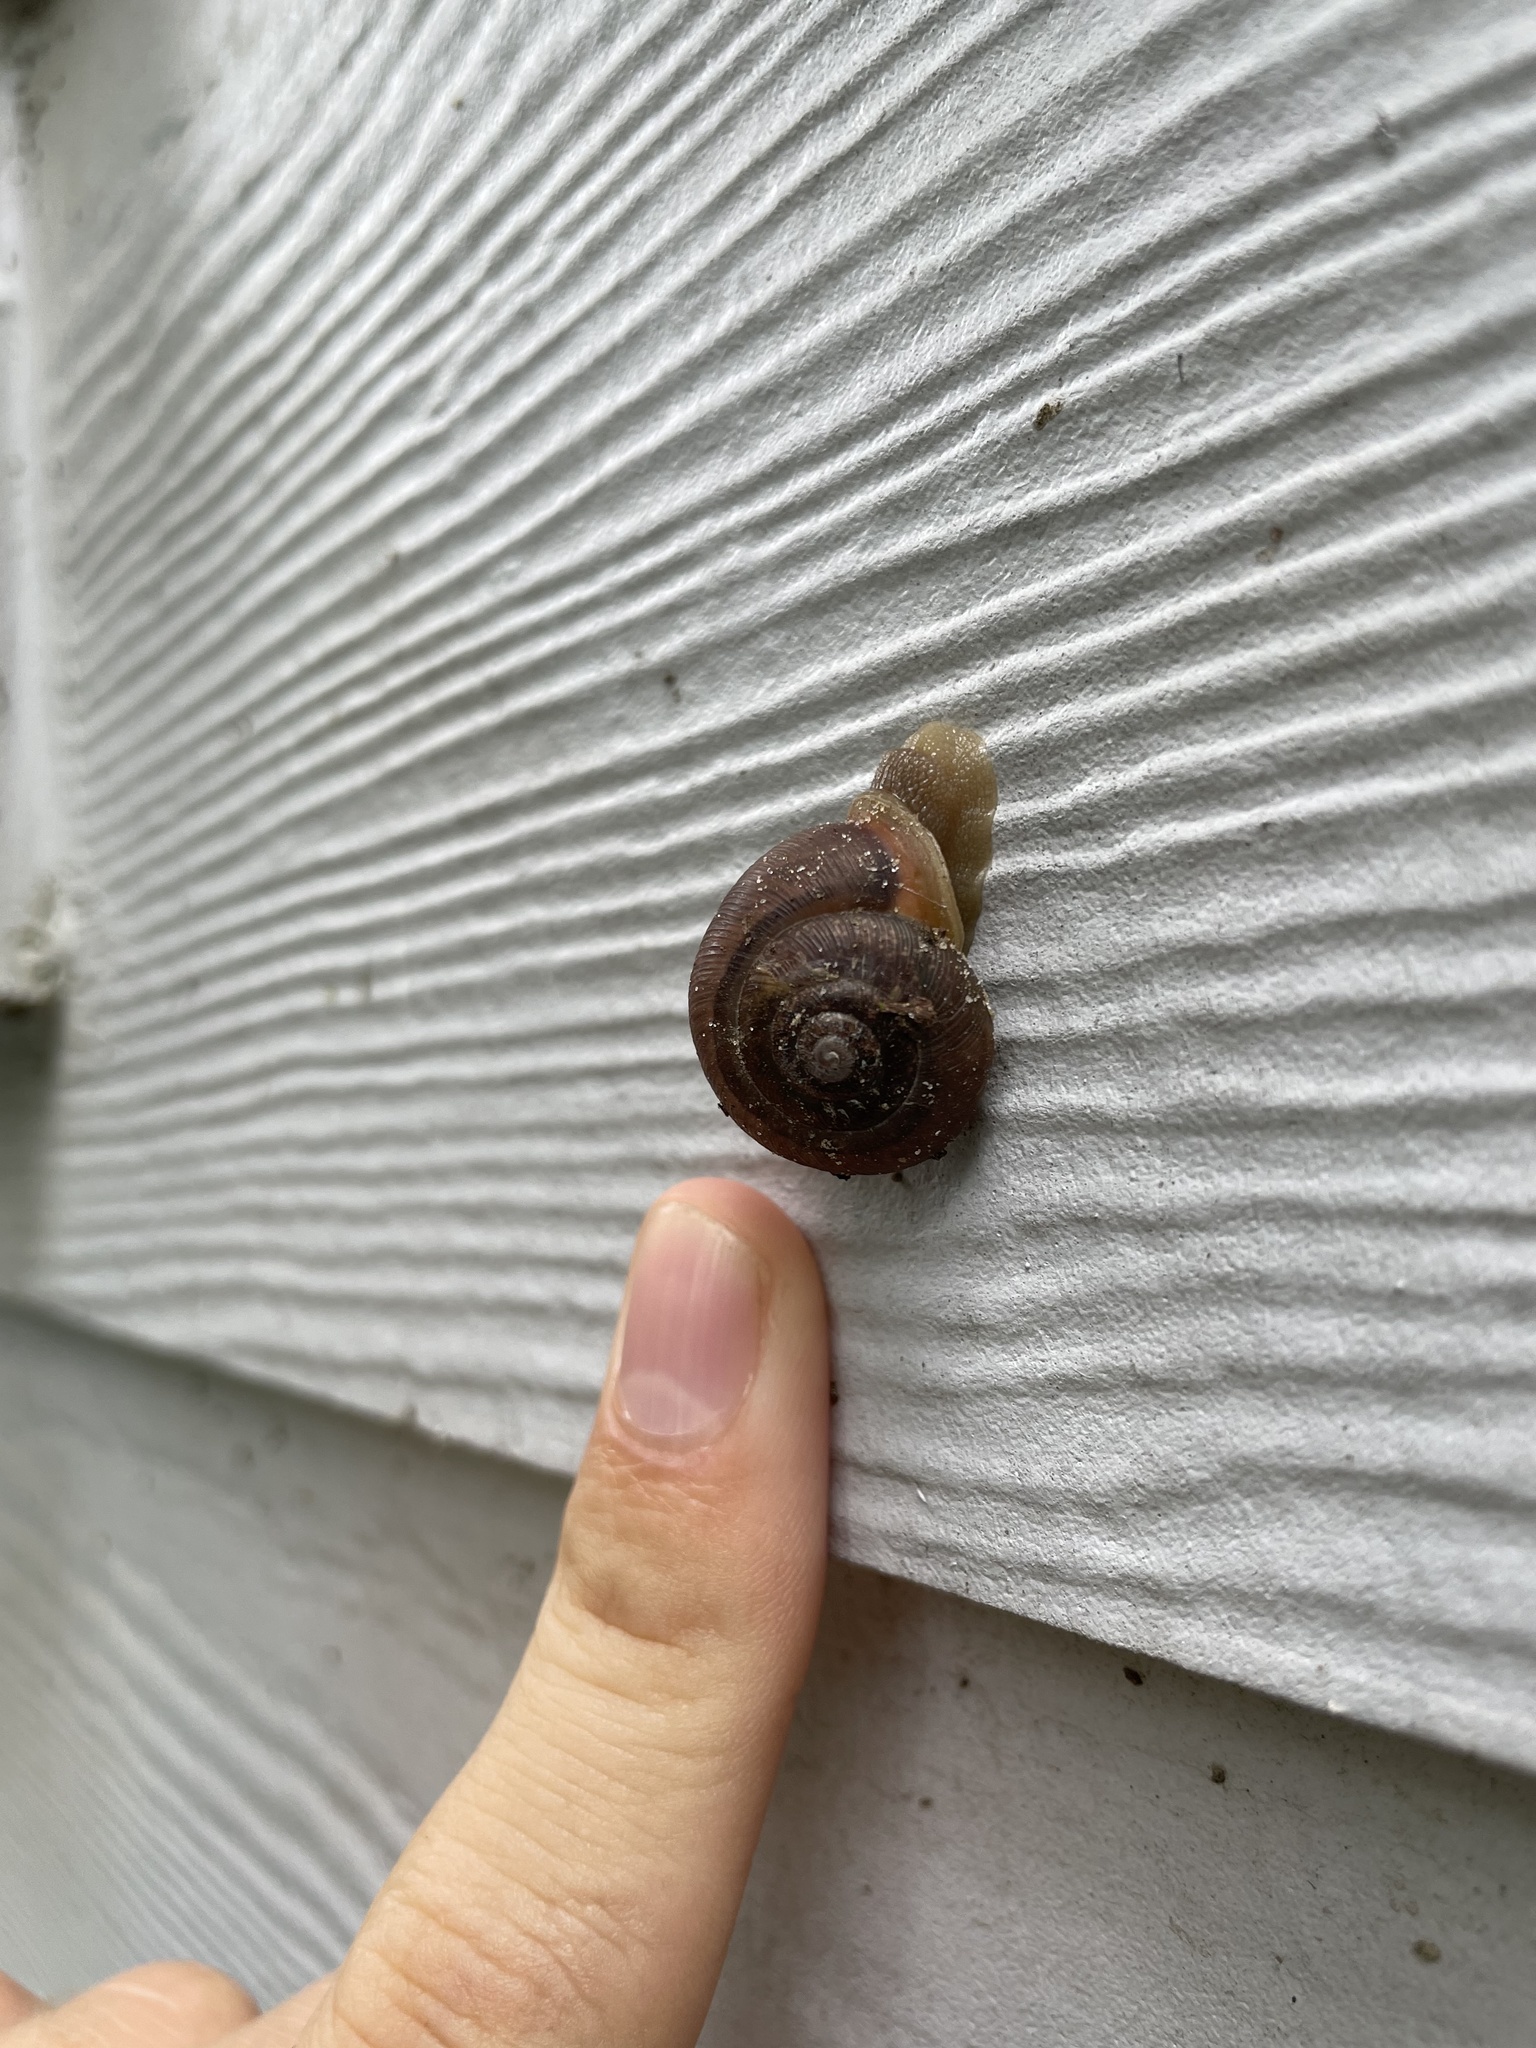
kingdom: Animalia
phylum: Mollusca
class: Gastropoda
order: Stylommatophora
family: Polygyridae
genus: Neohelix
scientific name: Neohelix albolabris
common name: Eastern whitelip
